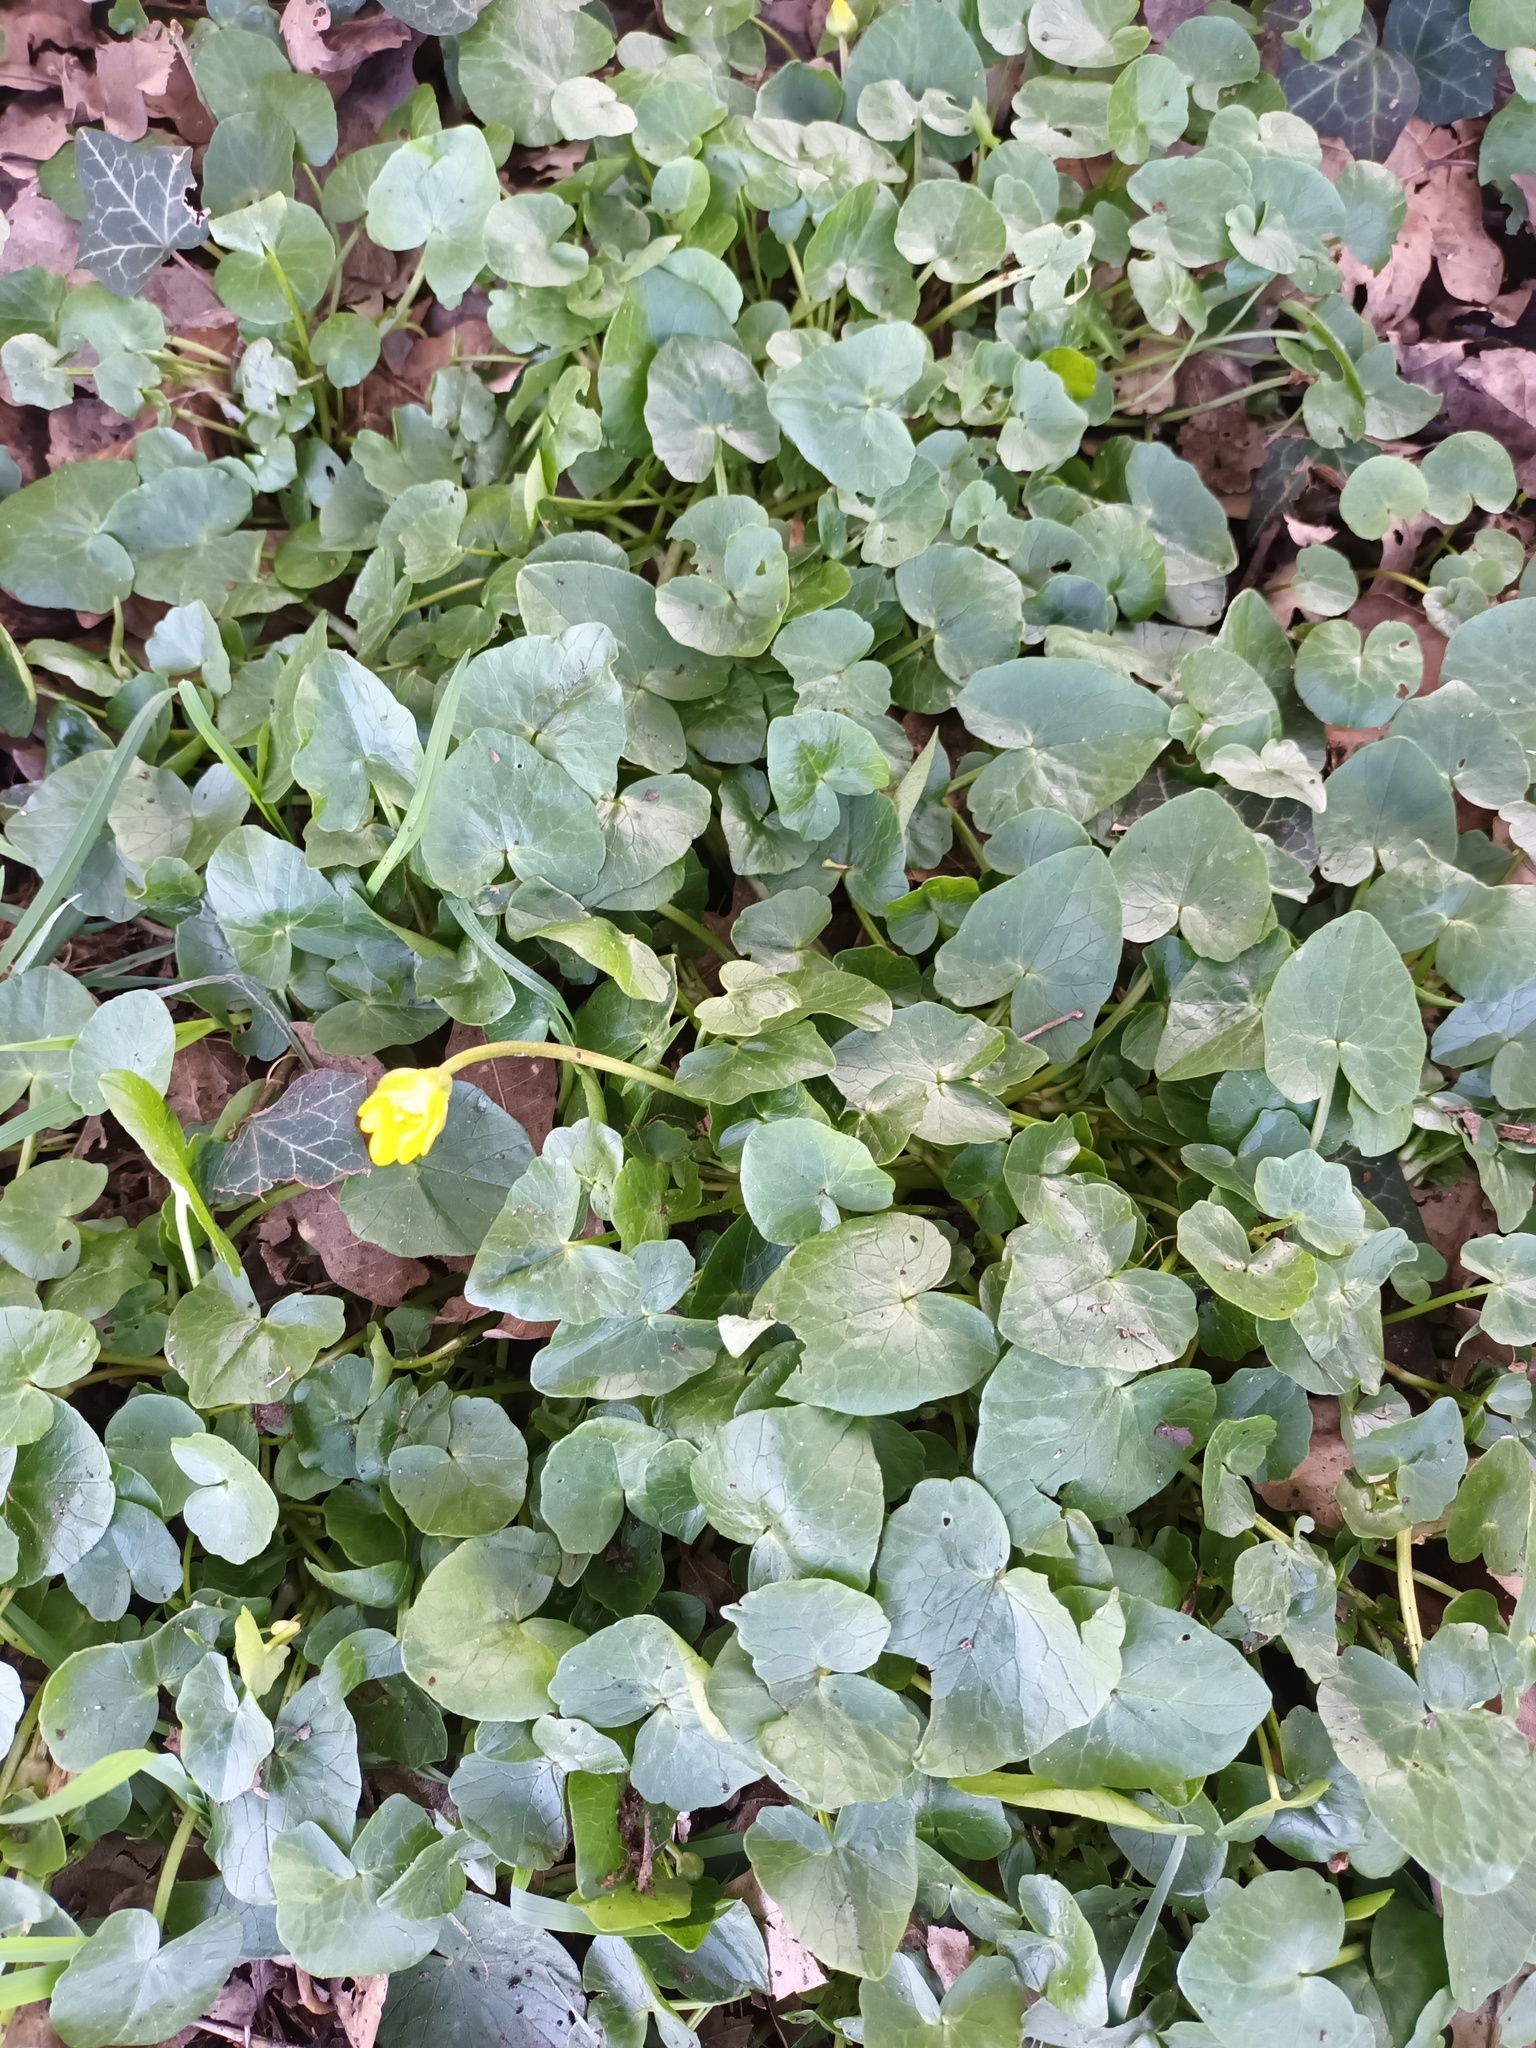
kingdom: Plantae
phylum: Tracheophyta
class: Magnoliopsida
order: Ranunculales
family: Ranunculaceae
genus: Ficaria
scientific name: Ficaria verna
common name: Lesser celandine
